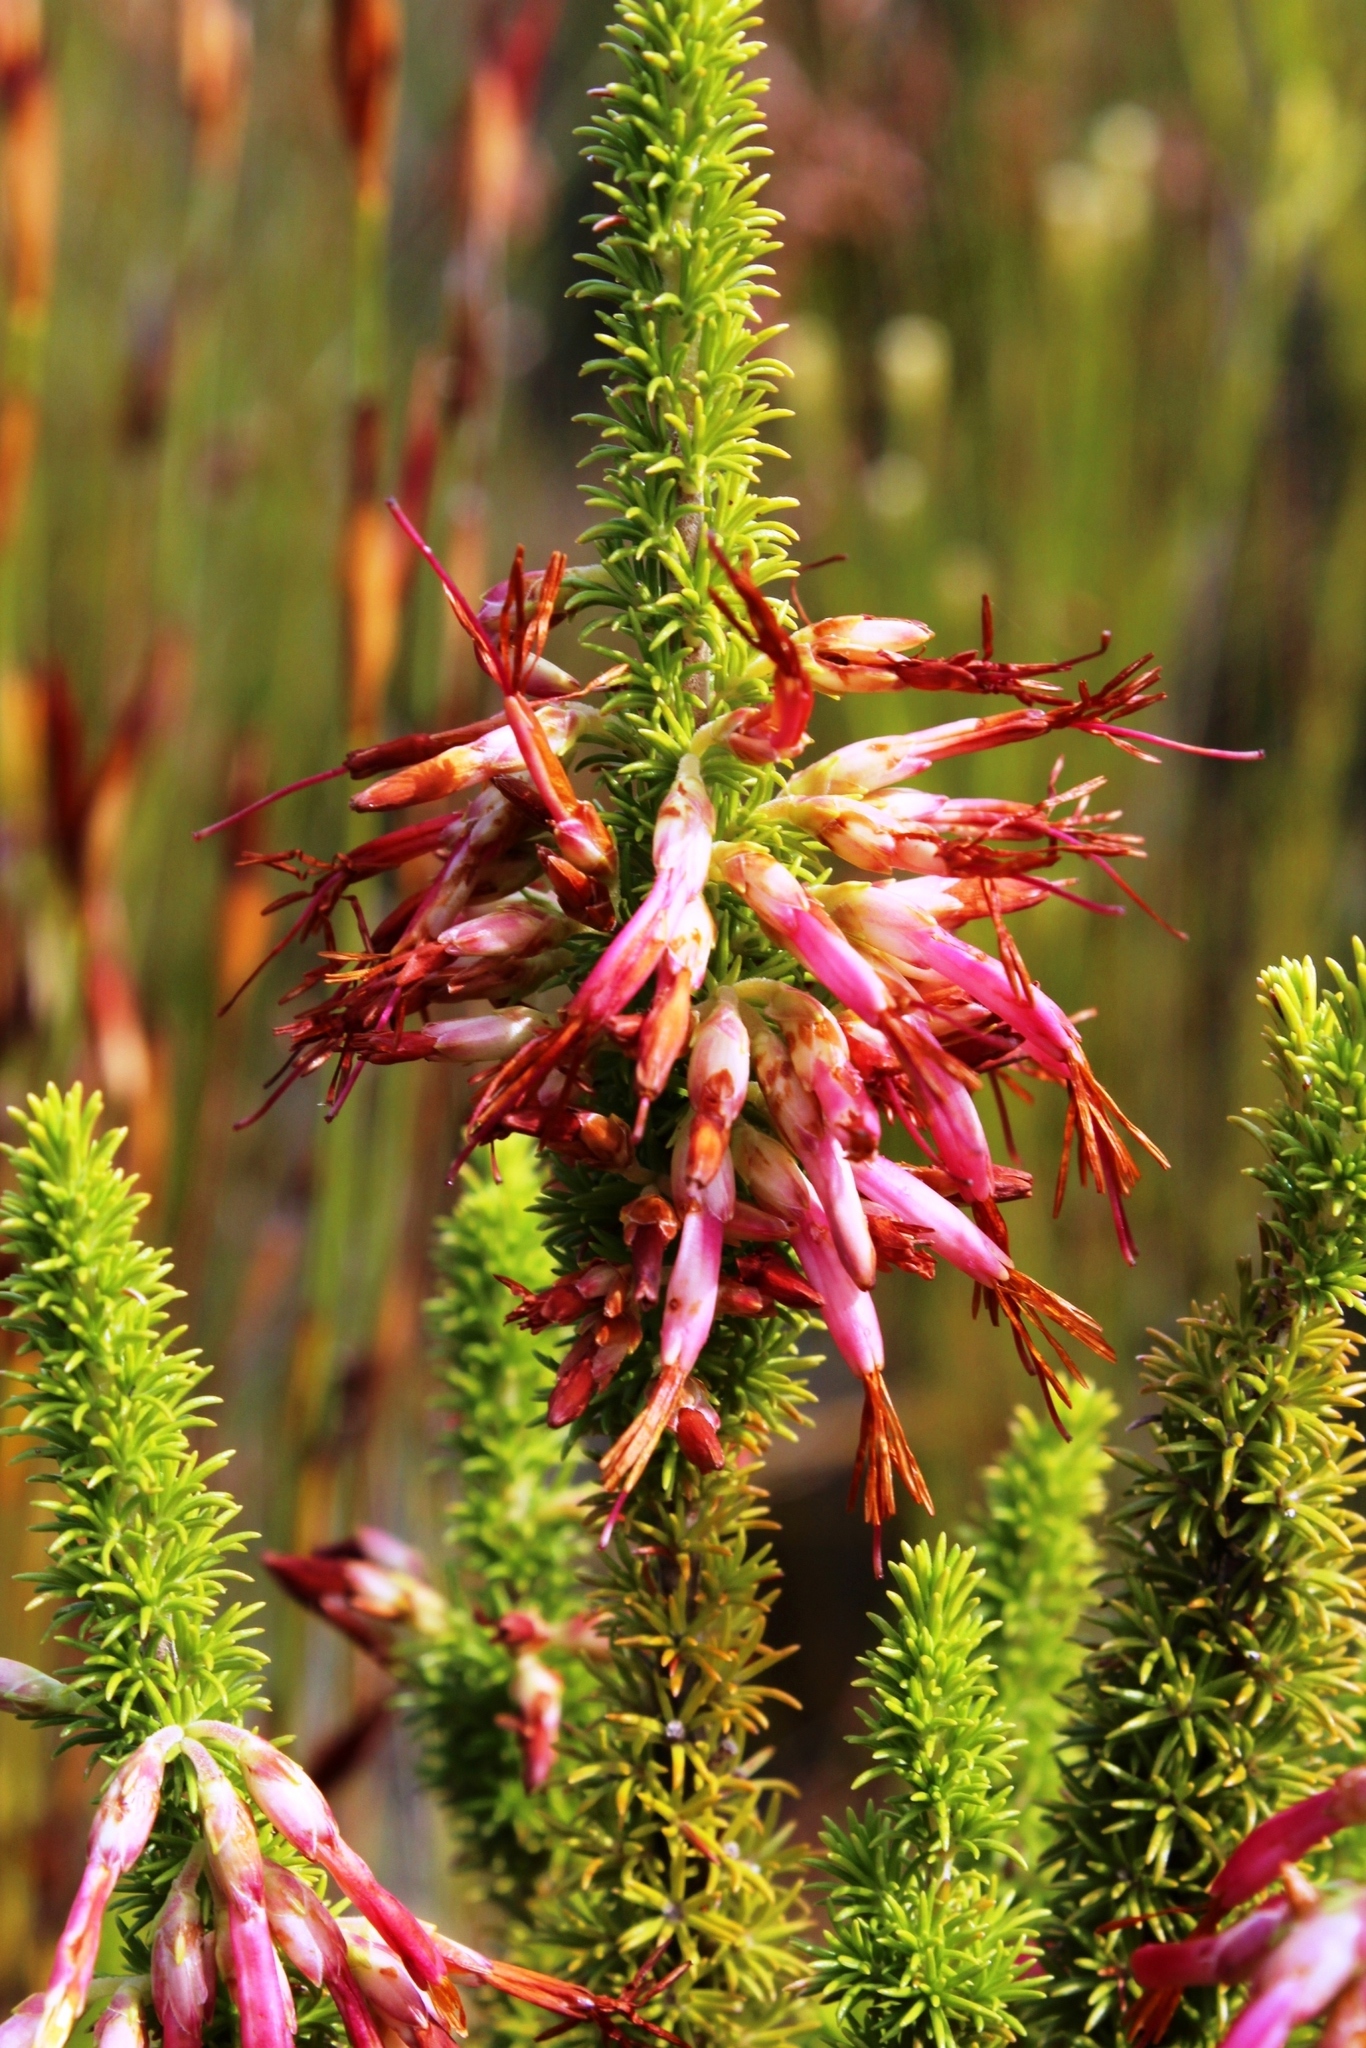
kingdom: Plantae
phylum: Tracheophyta
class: Magnoliopsida
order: Ericales
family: Ericaceae
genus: Erica
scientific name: Erica coccinea
